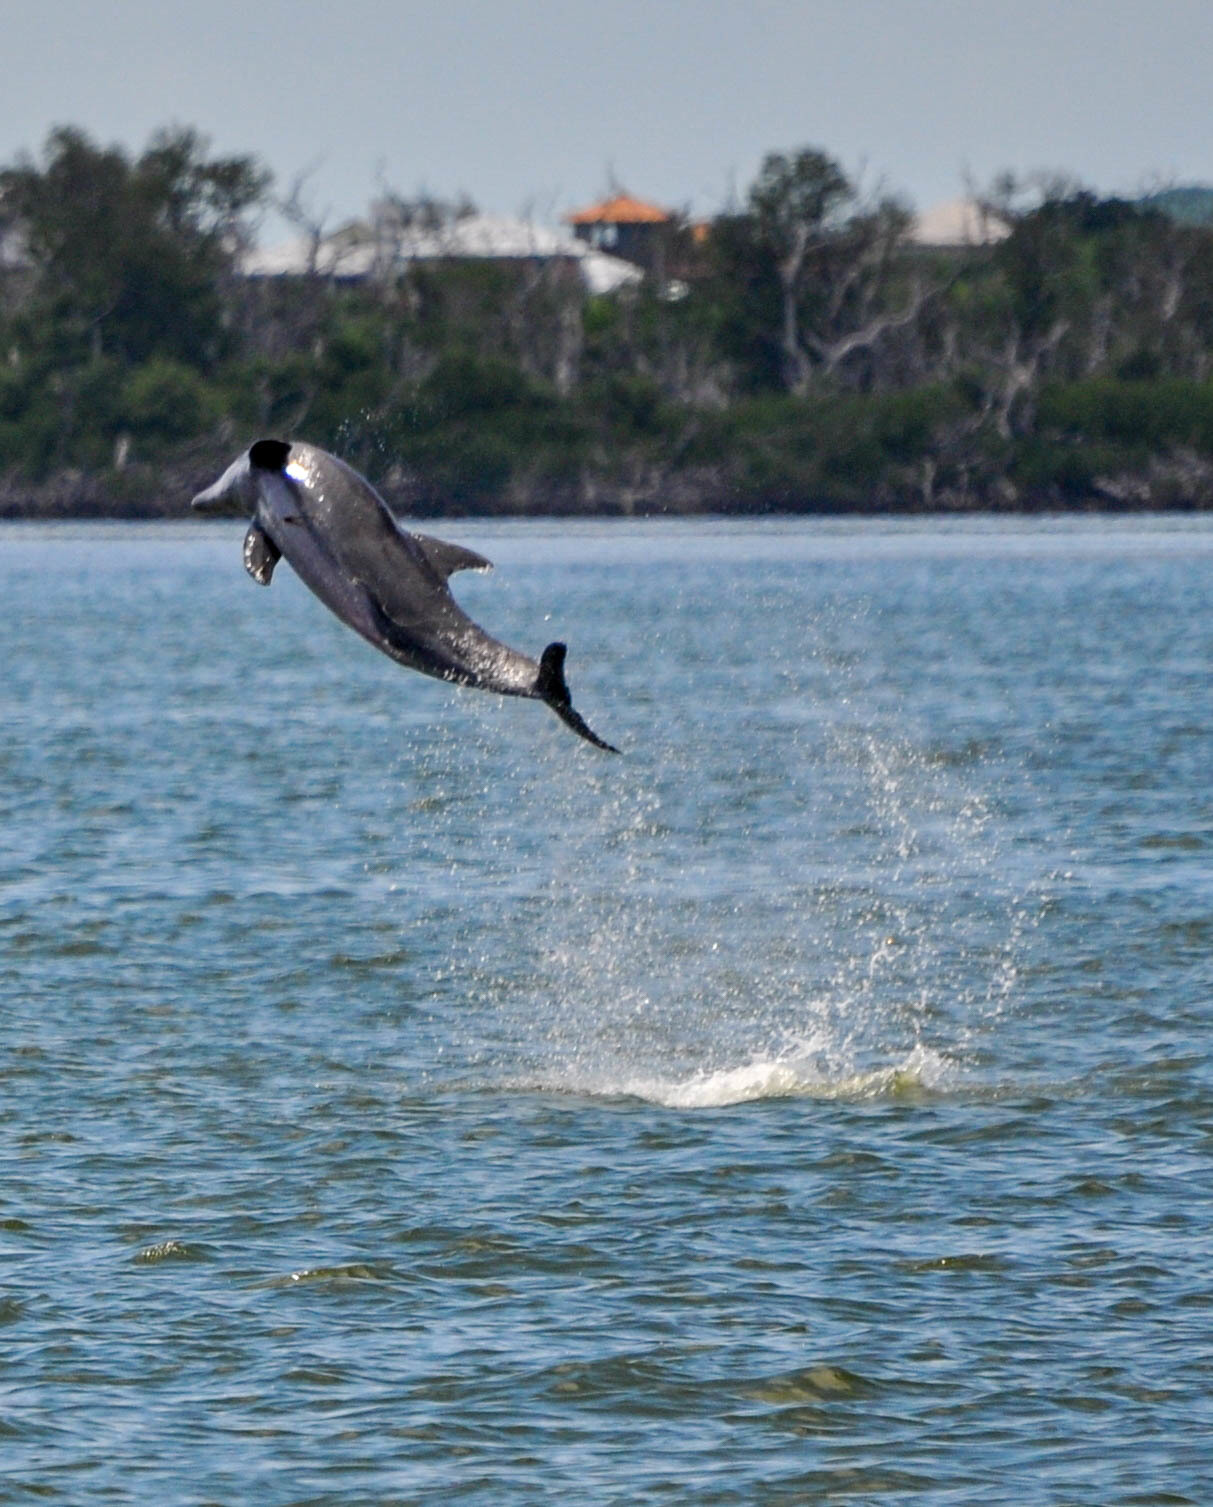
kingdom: Animalia
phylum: Chordata
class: Mammalia
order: Cetacea
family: Delphinidae
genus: Tursiops
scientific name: Tursiops truncatus
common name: Bottlenose dolphin
